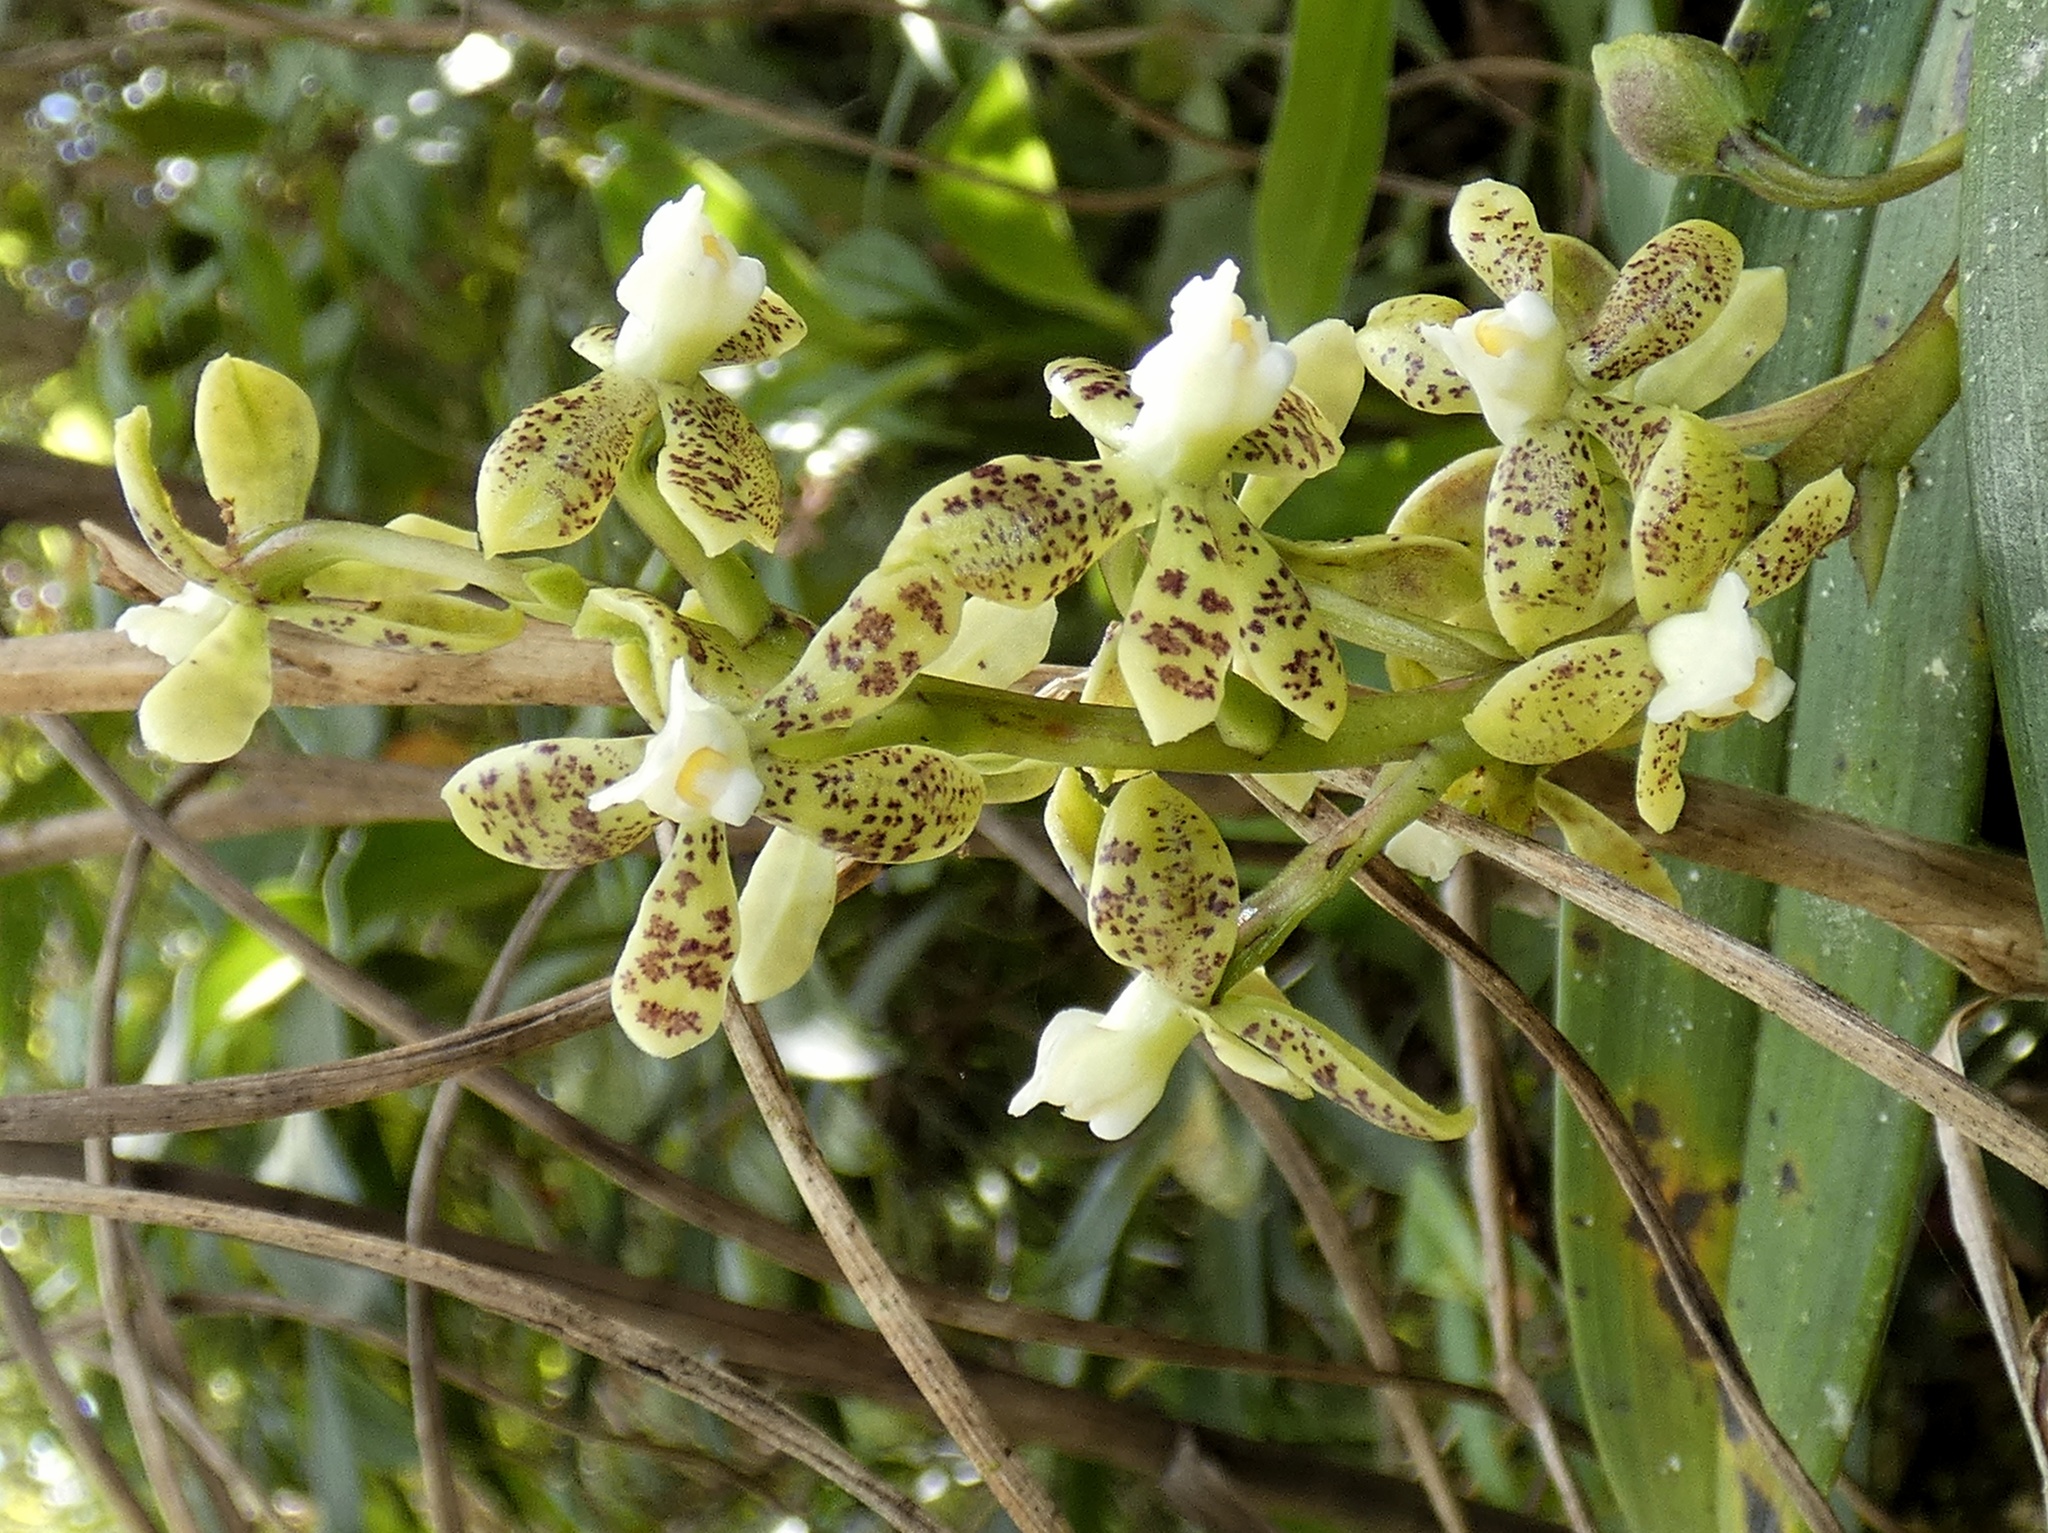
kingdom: Plantae
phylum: Tracheophyta
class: Liliopsida
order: Asparagales
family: Orchidaceae
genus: Prosthechea
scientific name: Prosthechea crassilabia
